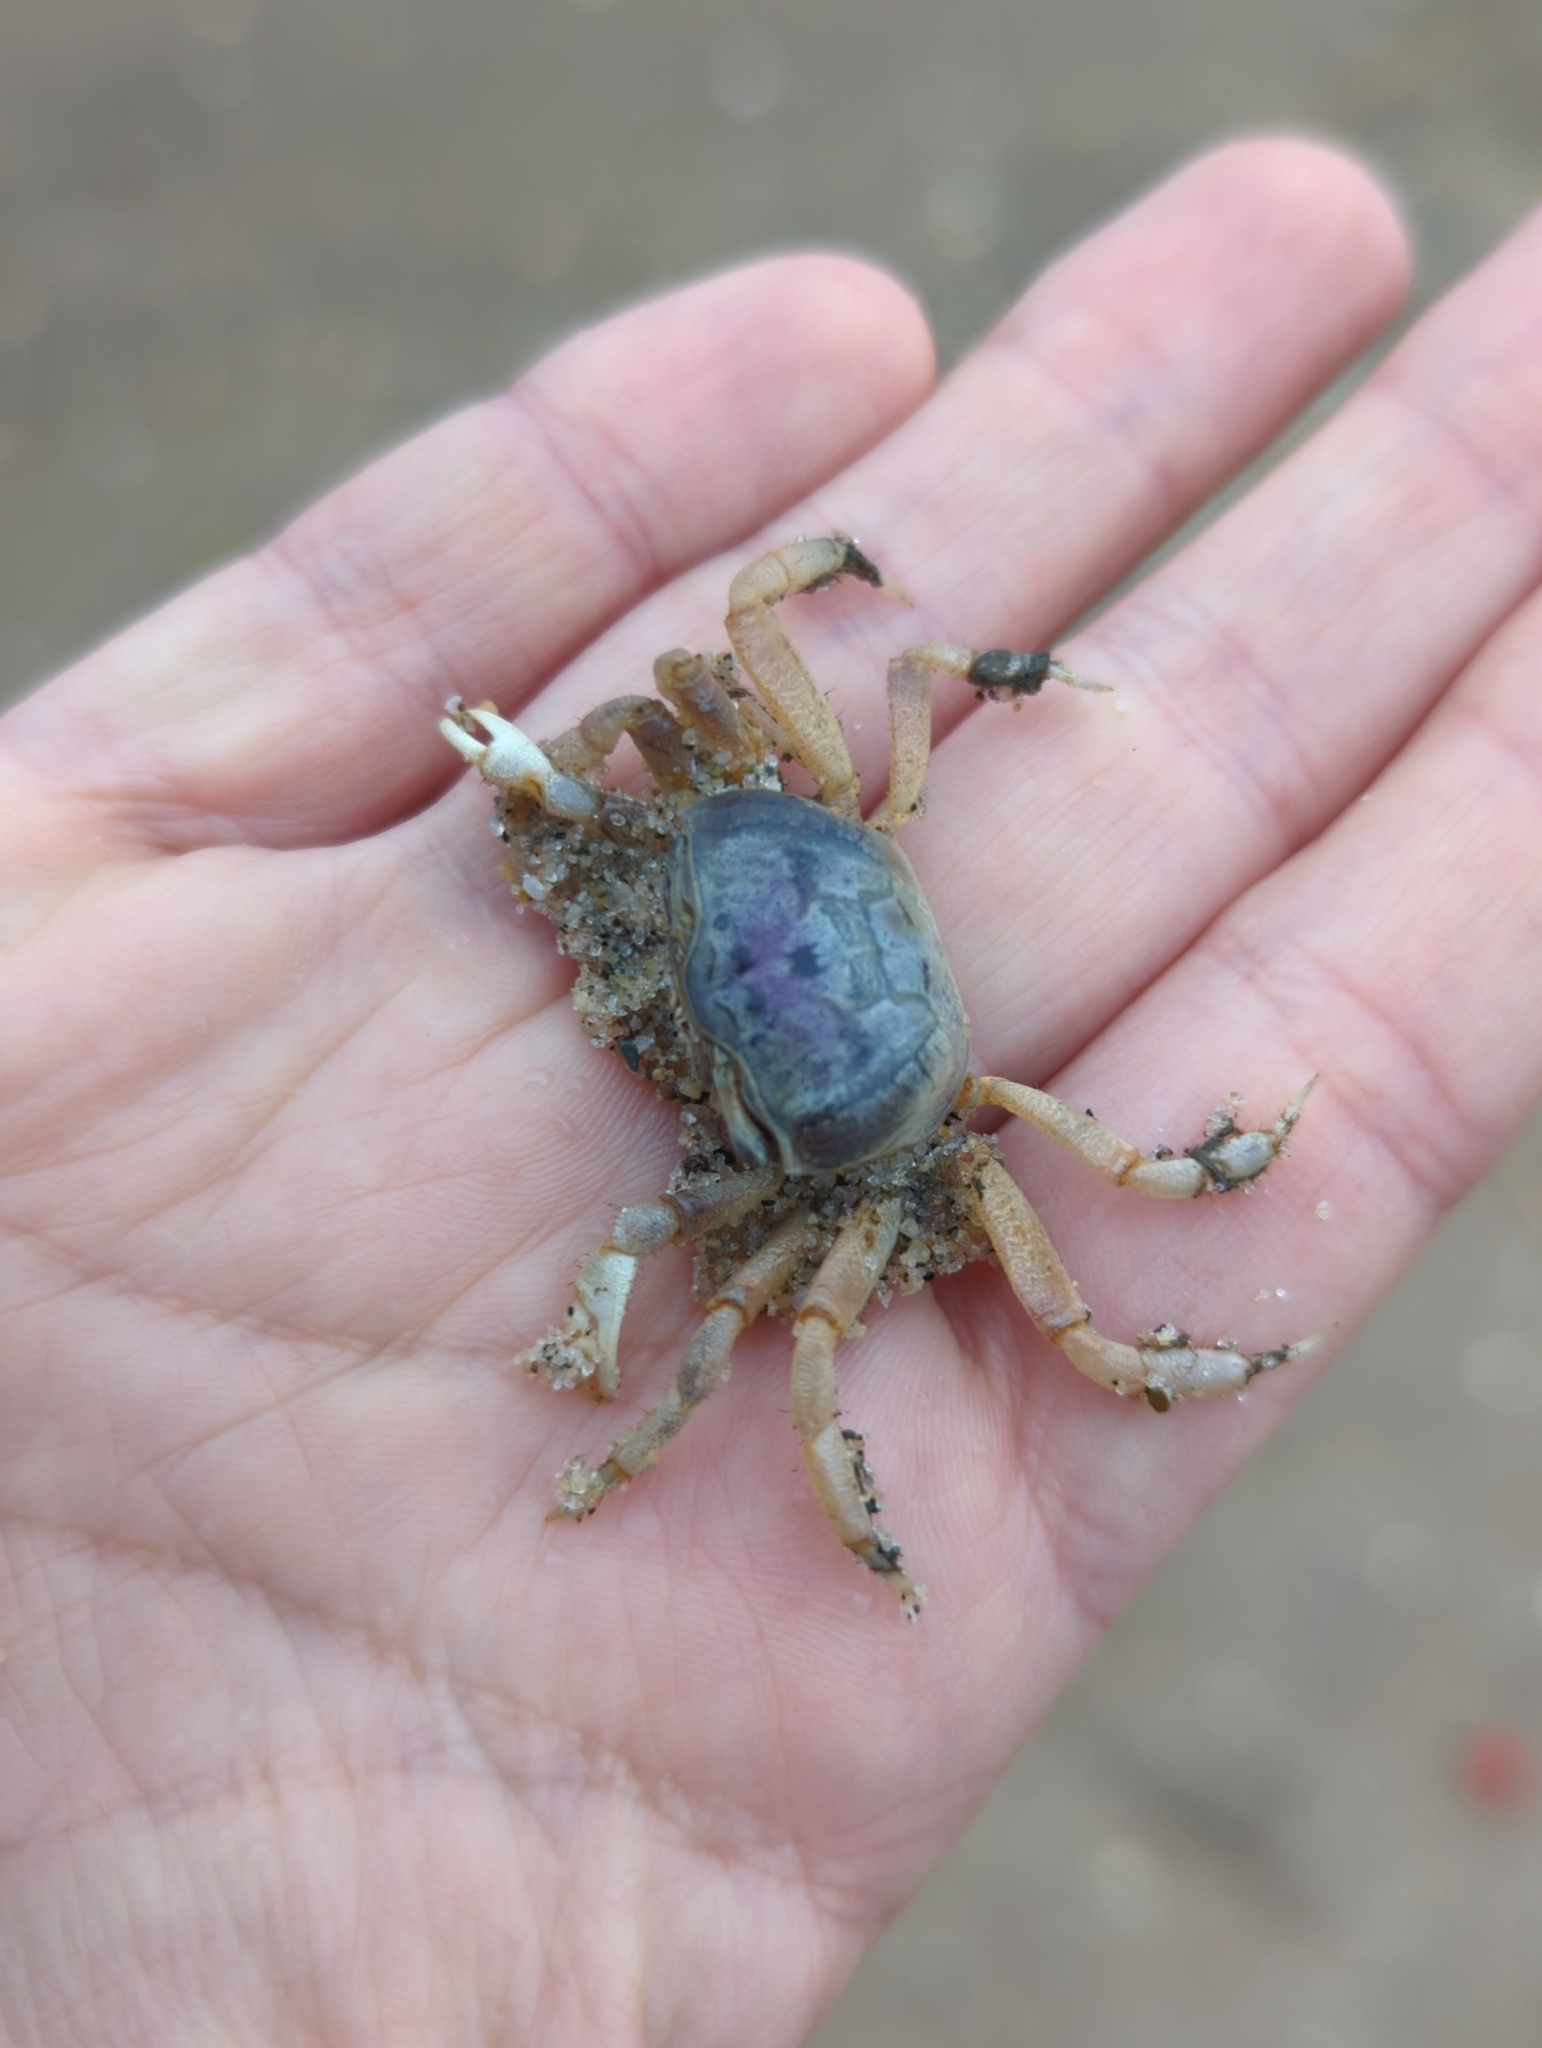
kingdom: Animalia
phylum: Arthropoda
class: Malacostraca
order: Decapoda
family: Ocypodidae
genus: Leptuca
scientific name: Leptuca pugilator
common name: Atlantic sand fiddler crab
